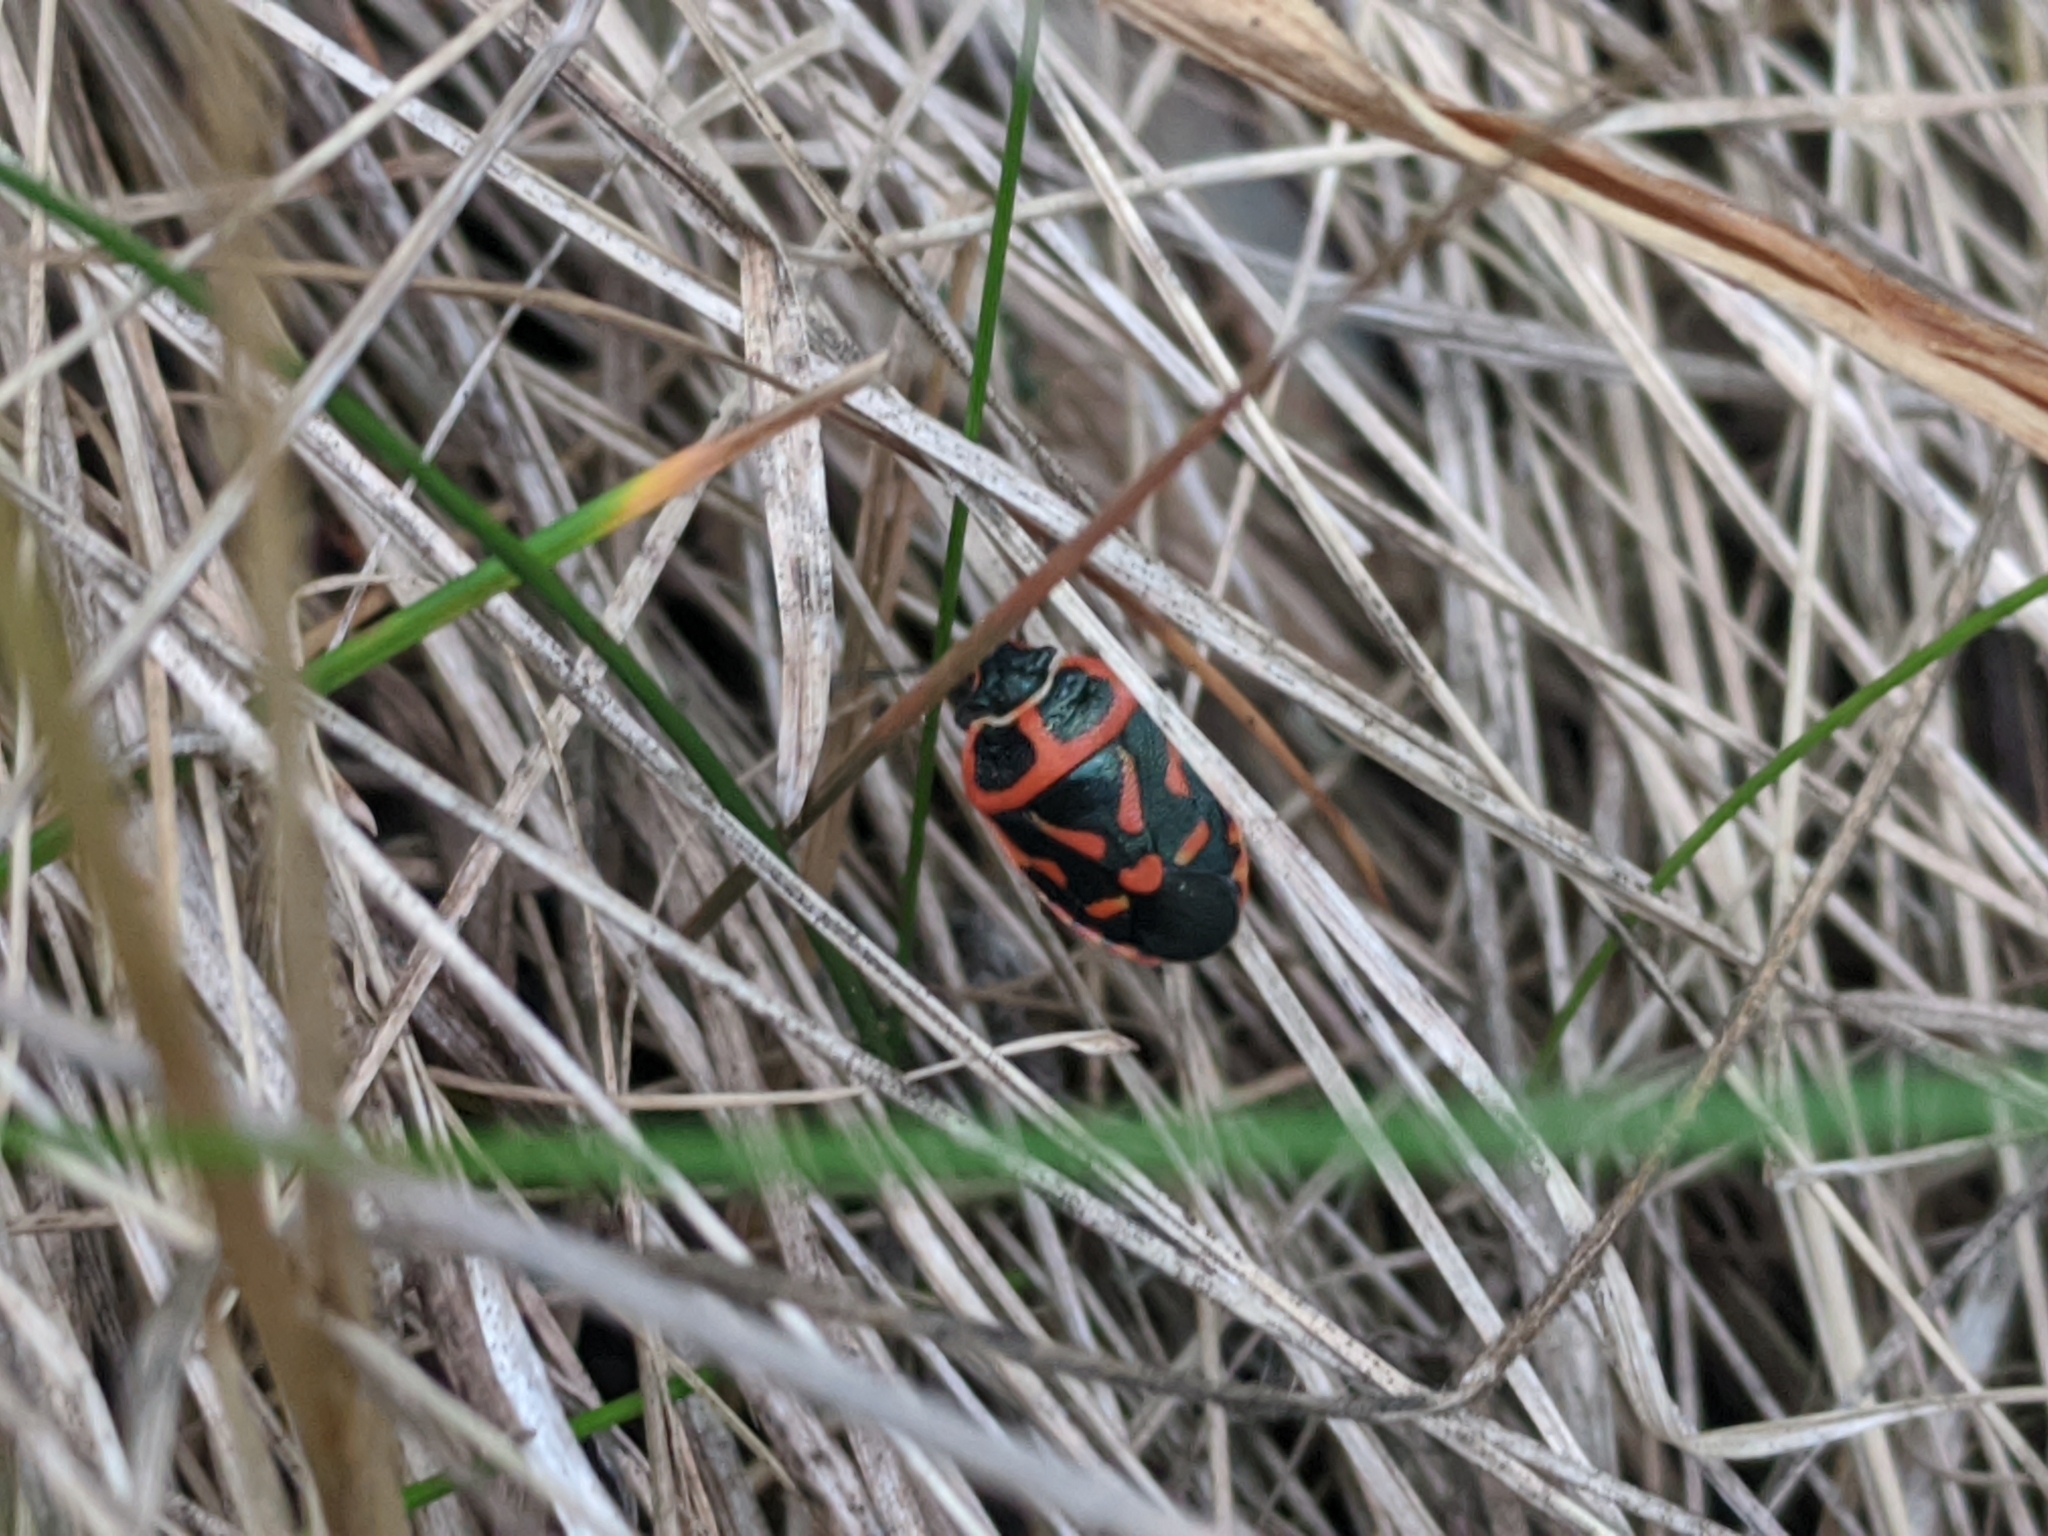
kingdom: Animalia
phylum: Arthropoda
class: Insecta
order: Hemiptera
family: Pentatomidae
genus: Eurydema
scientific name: Eurydema fieberi
